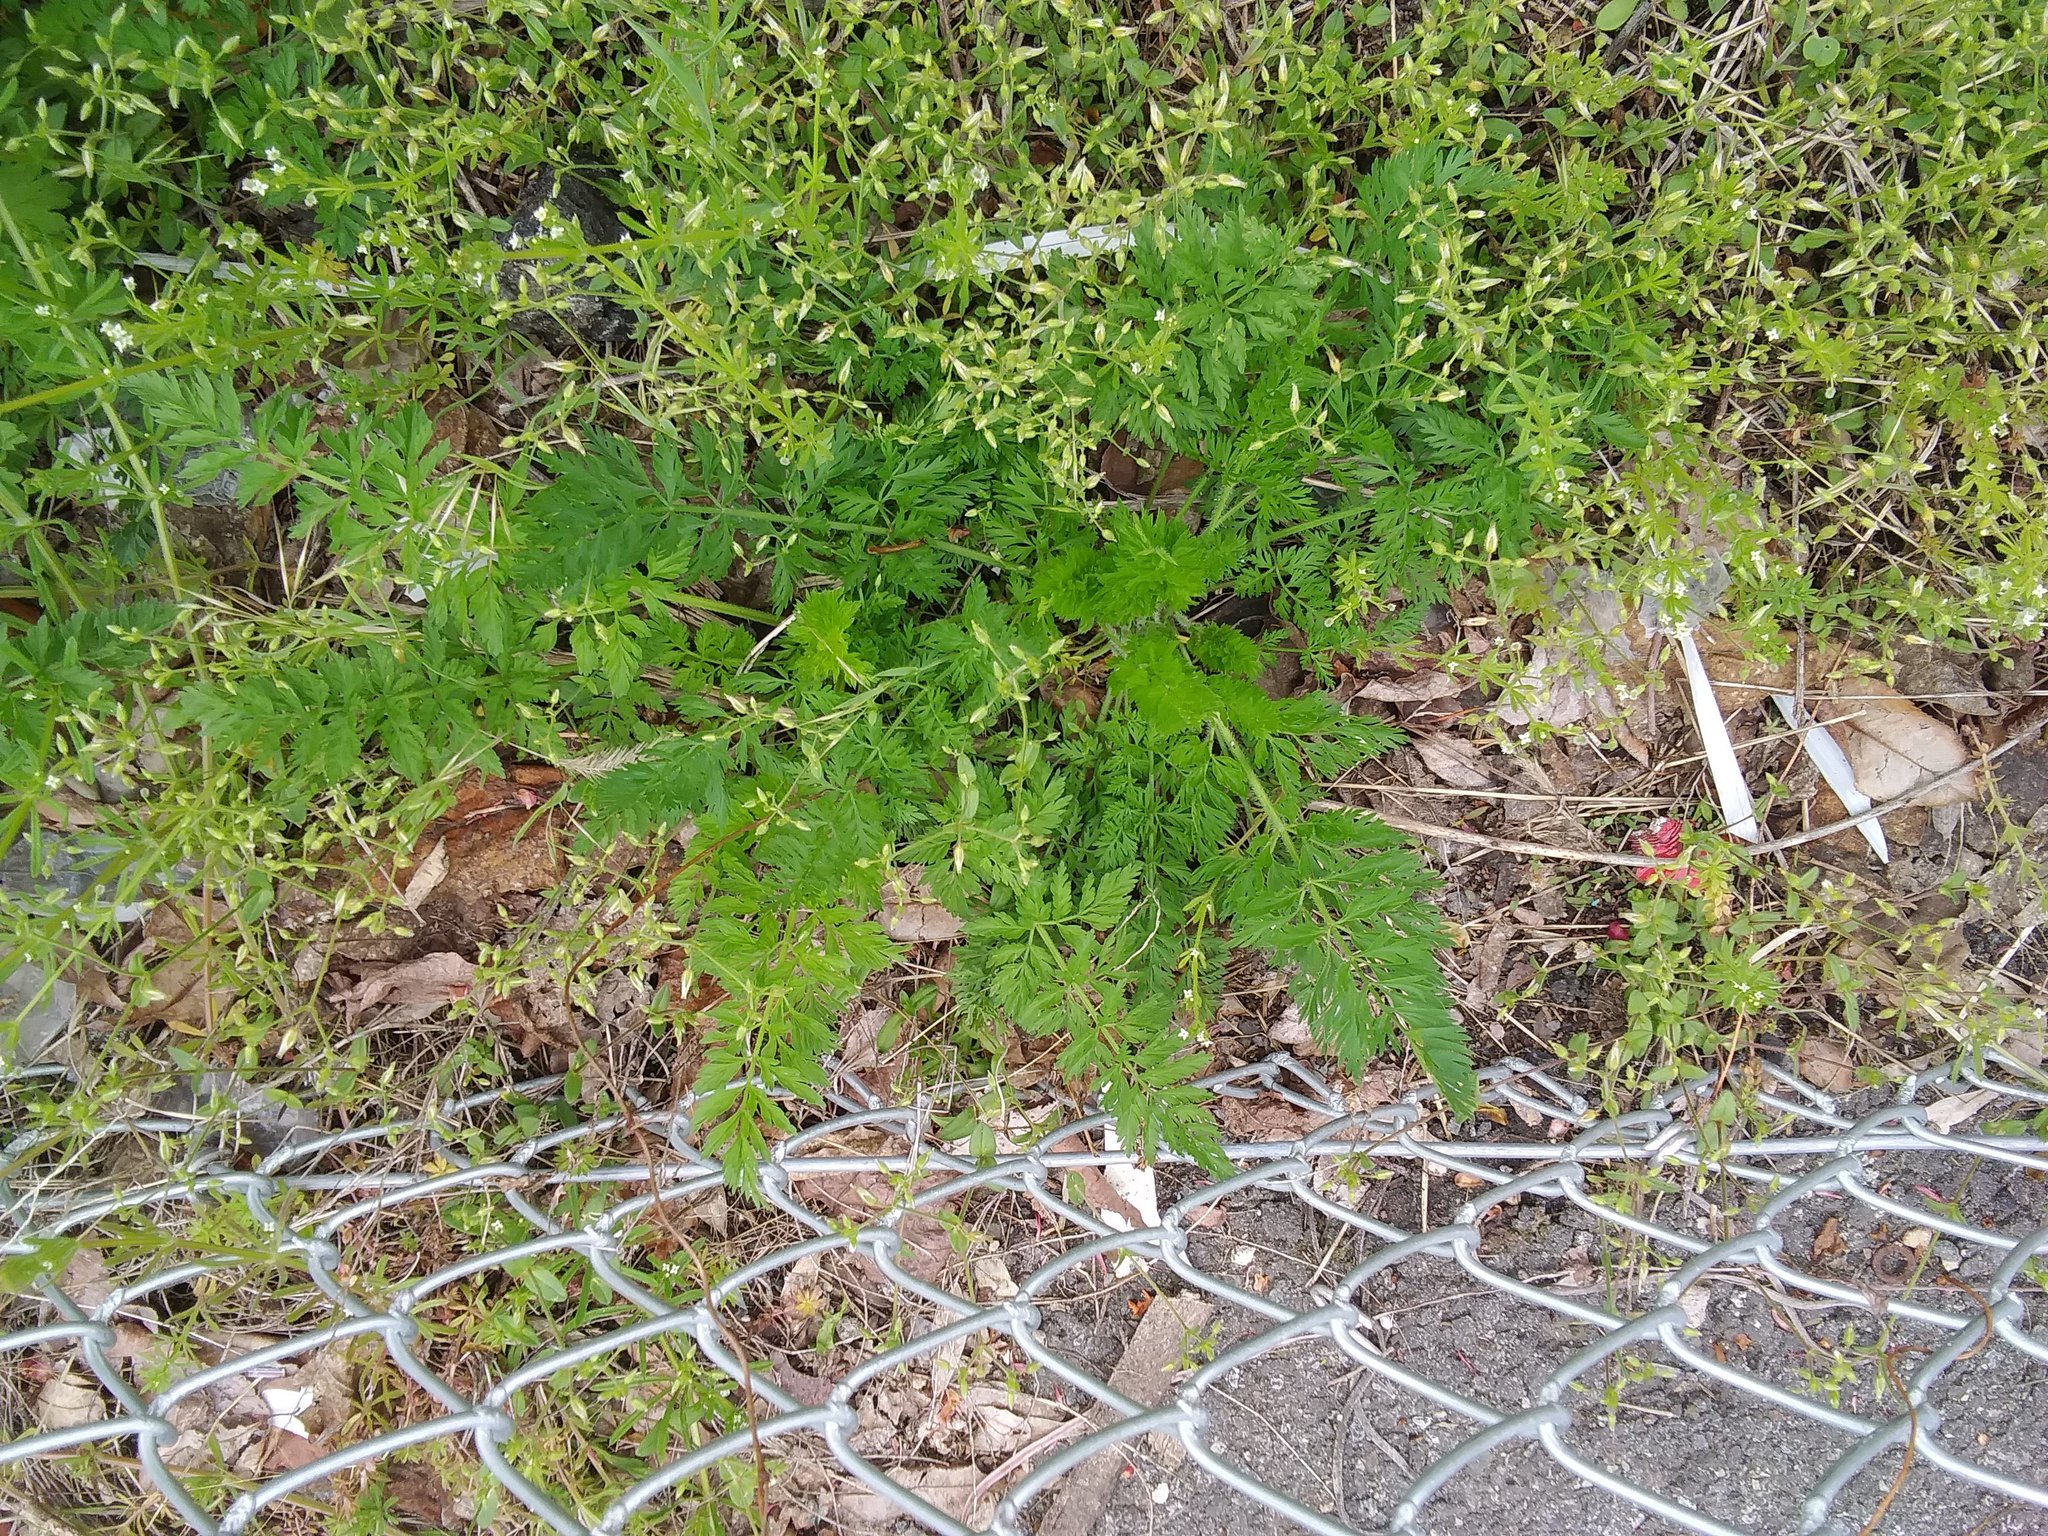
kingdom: Plantae
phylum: Tracheophyta
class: Magnoliopsida
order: Apiales
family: Apiaceae
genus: Daucus
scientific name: Daucus carota
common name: Wild carrot
